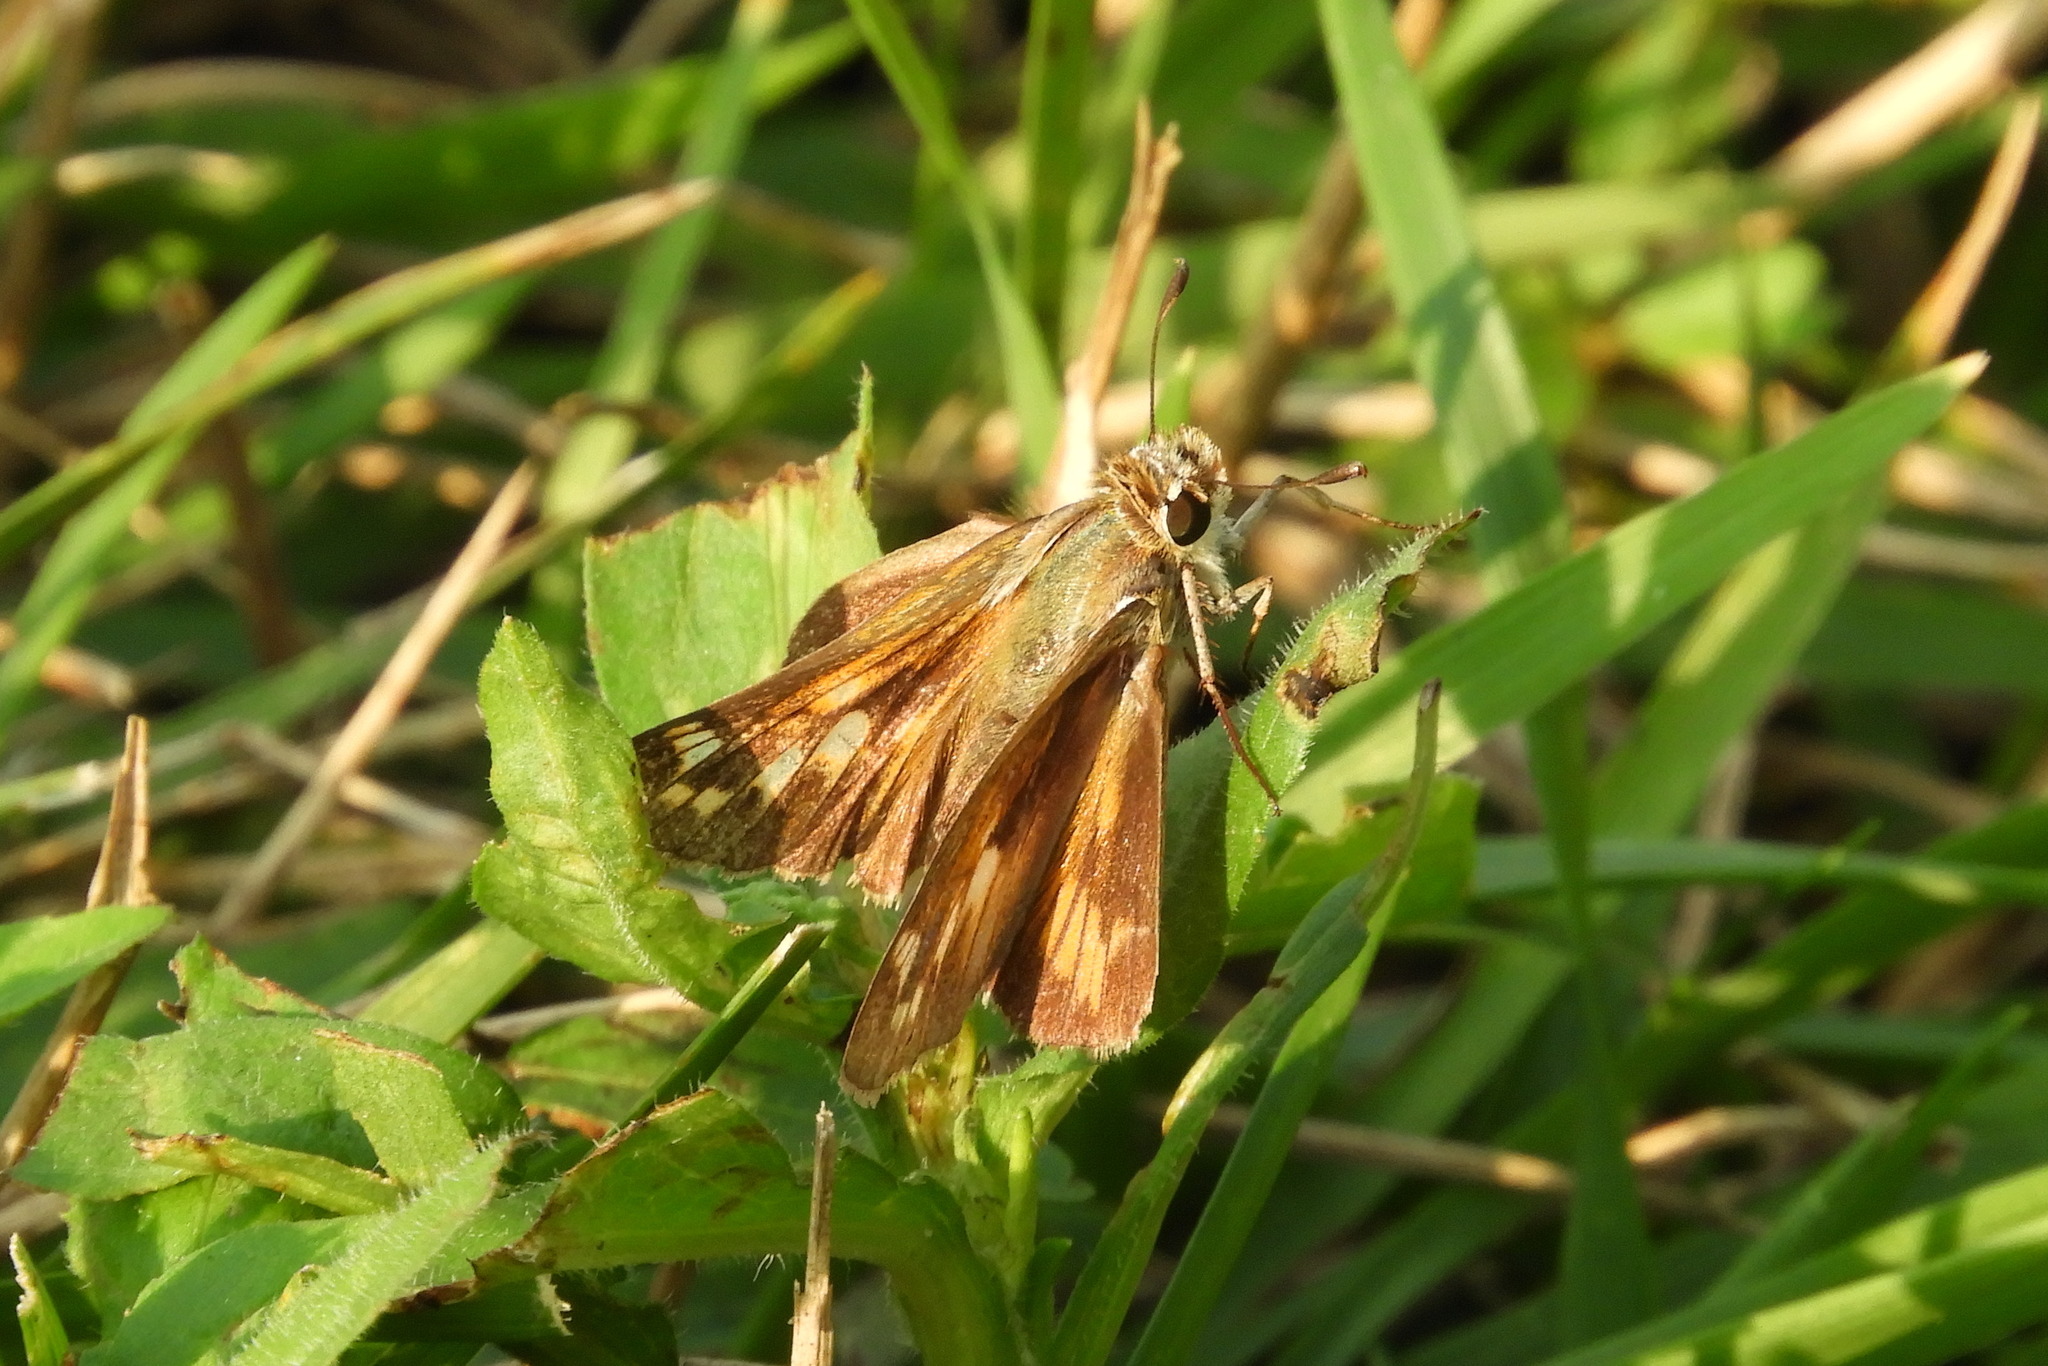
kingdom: Animalia
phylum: Arthropoda
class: Insecta
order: Lepidoptera
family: Hesperiidae
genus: Atalopedes
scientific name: Atalopedes
